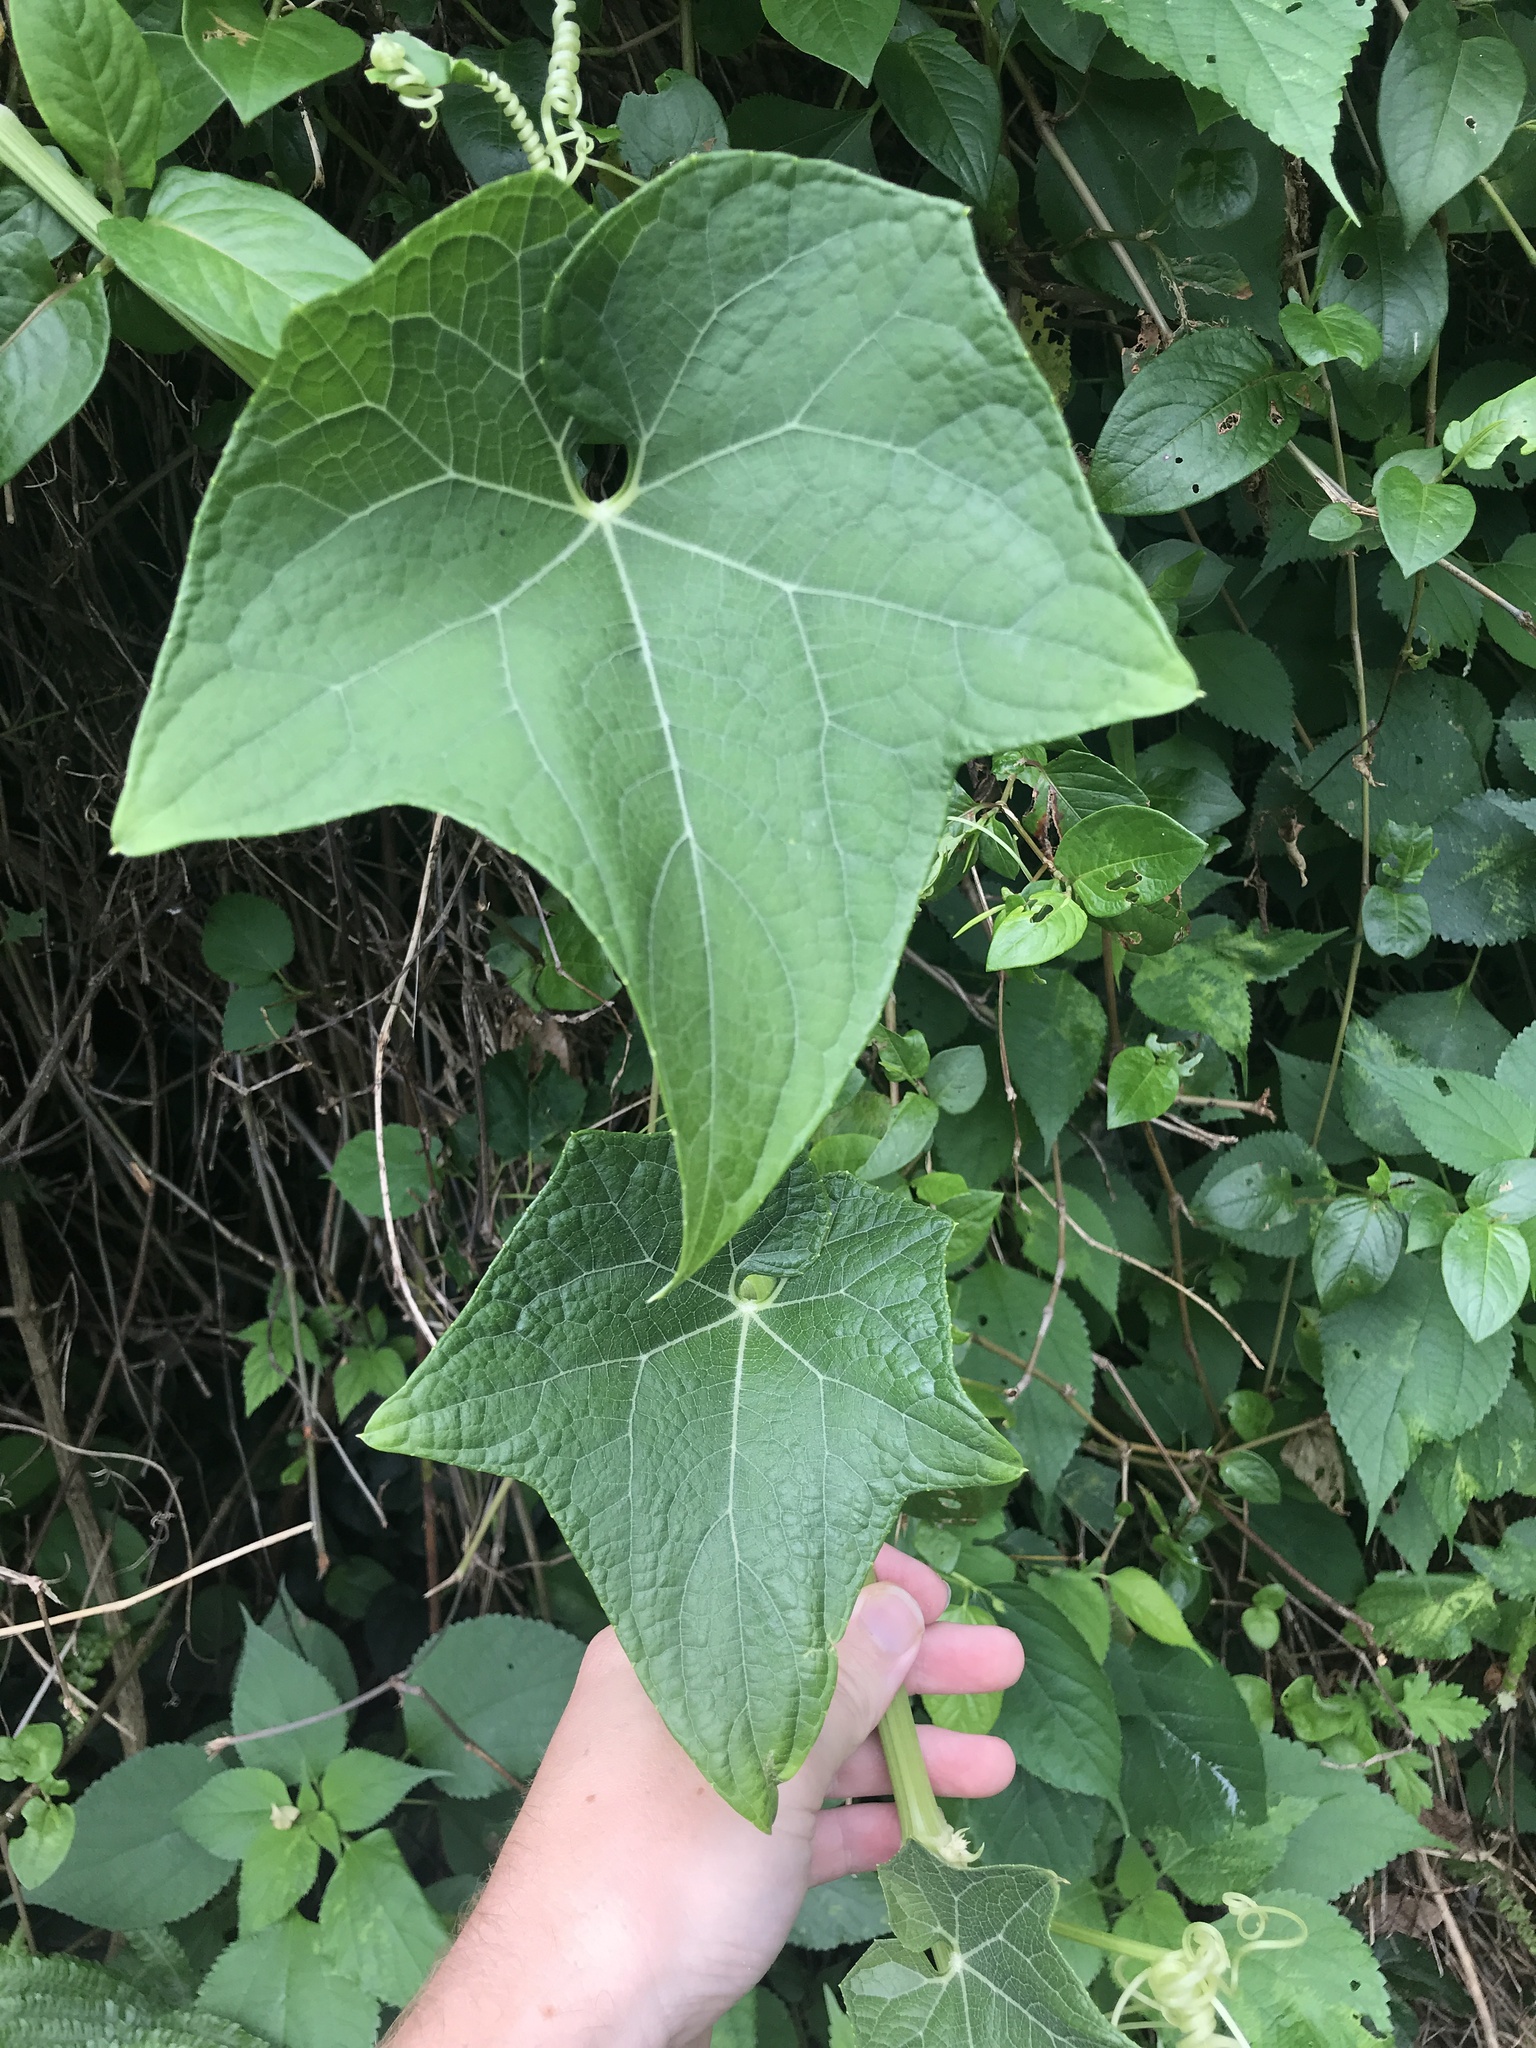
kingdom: Plantae
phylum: Tracheophyta
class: Magnoliopsida
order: Cucurbitales
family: Cucurbitaceae
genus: Sicyos
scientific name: Sicyos angulatus
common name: Angled burr cucumber
